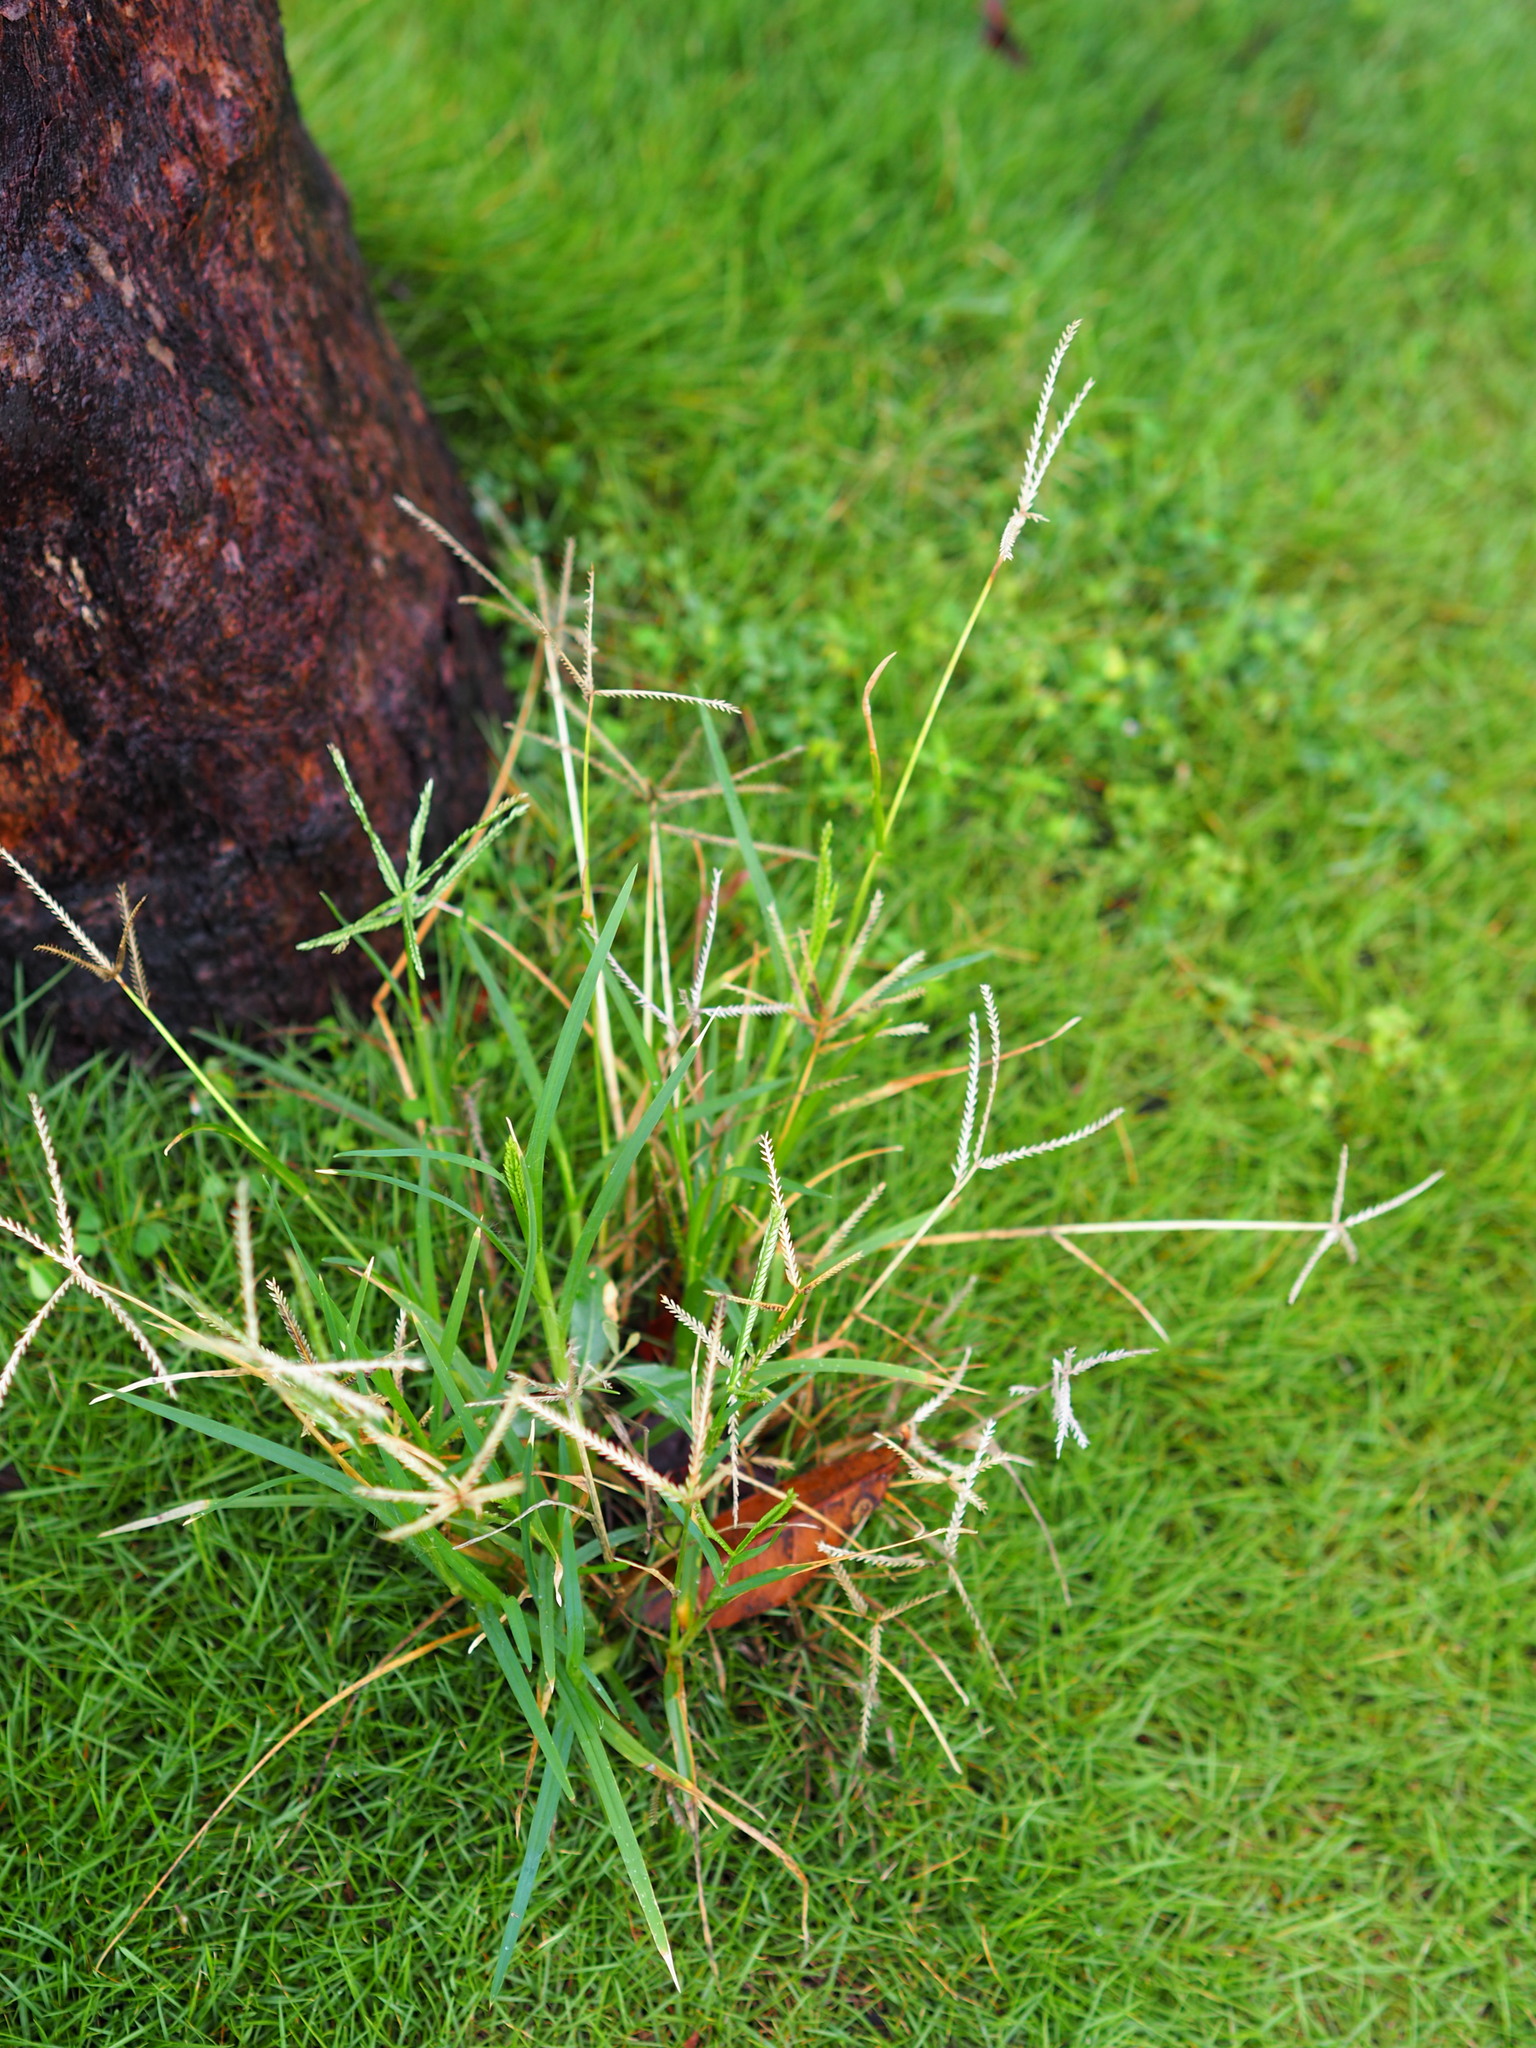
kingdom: Plantae
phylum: Tracheophyta
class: Liliopsida
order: Poales
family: Poaceae
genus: Eleusine
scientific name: Eleusine indica
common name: Yard-grass
